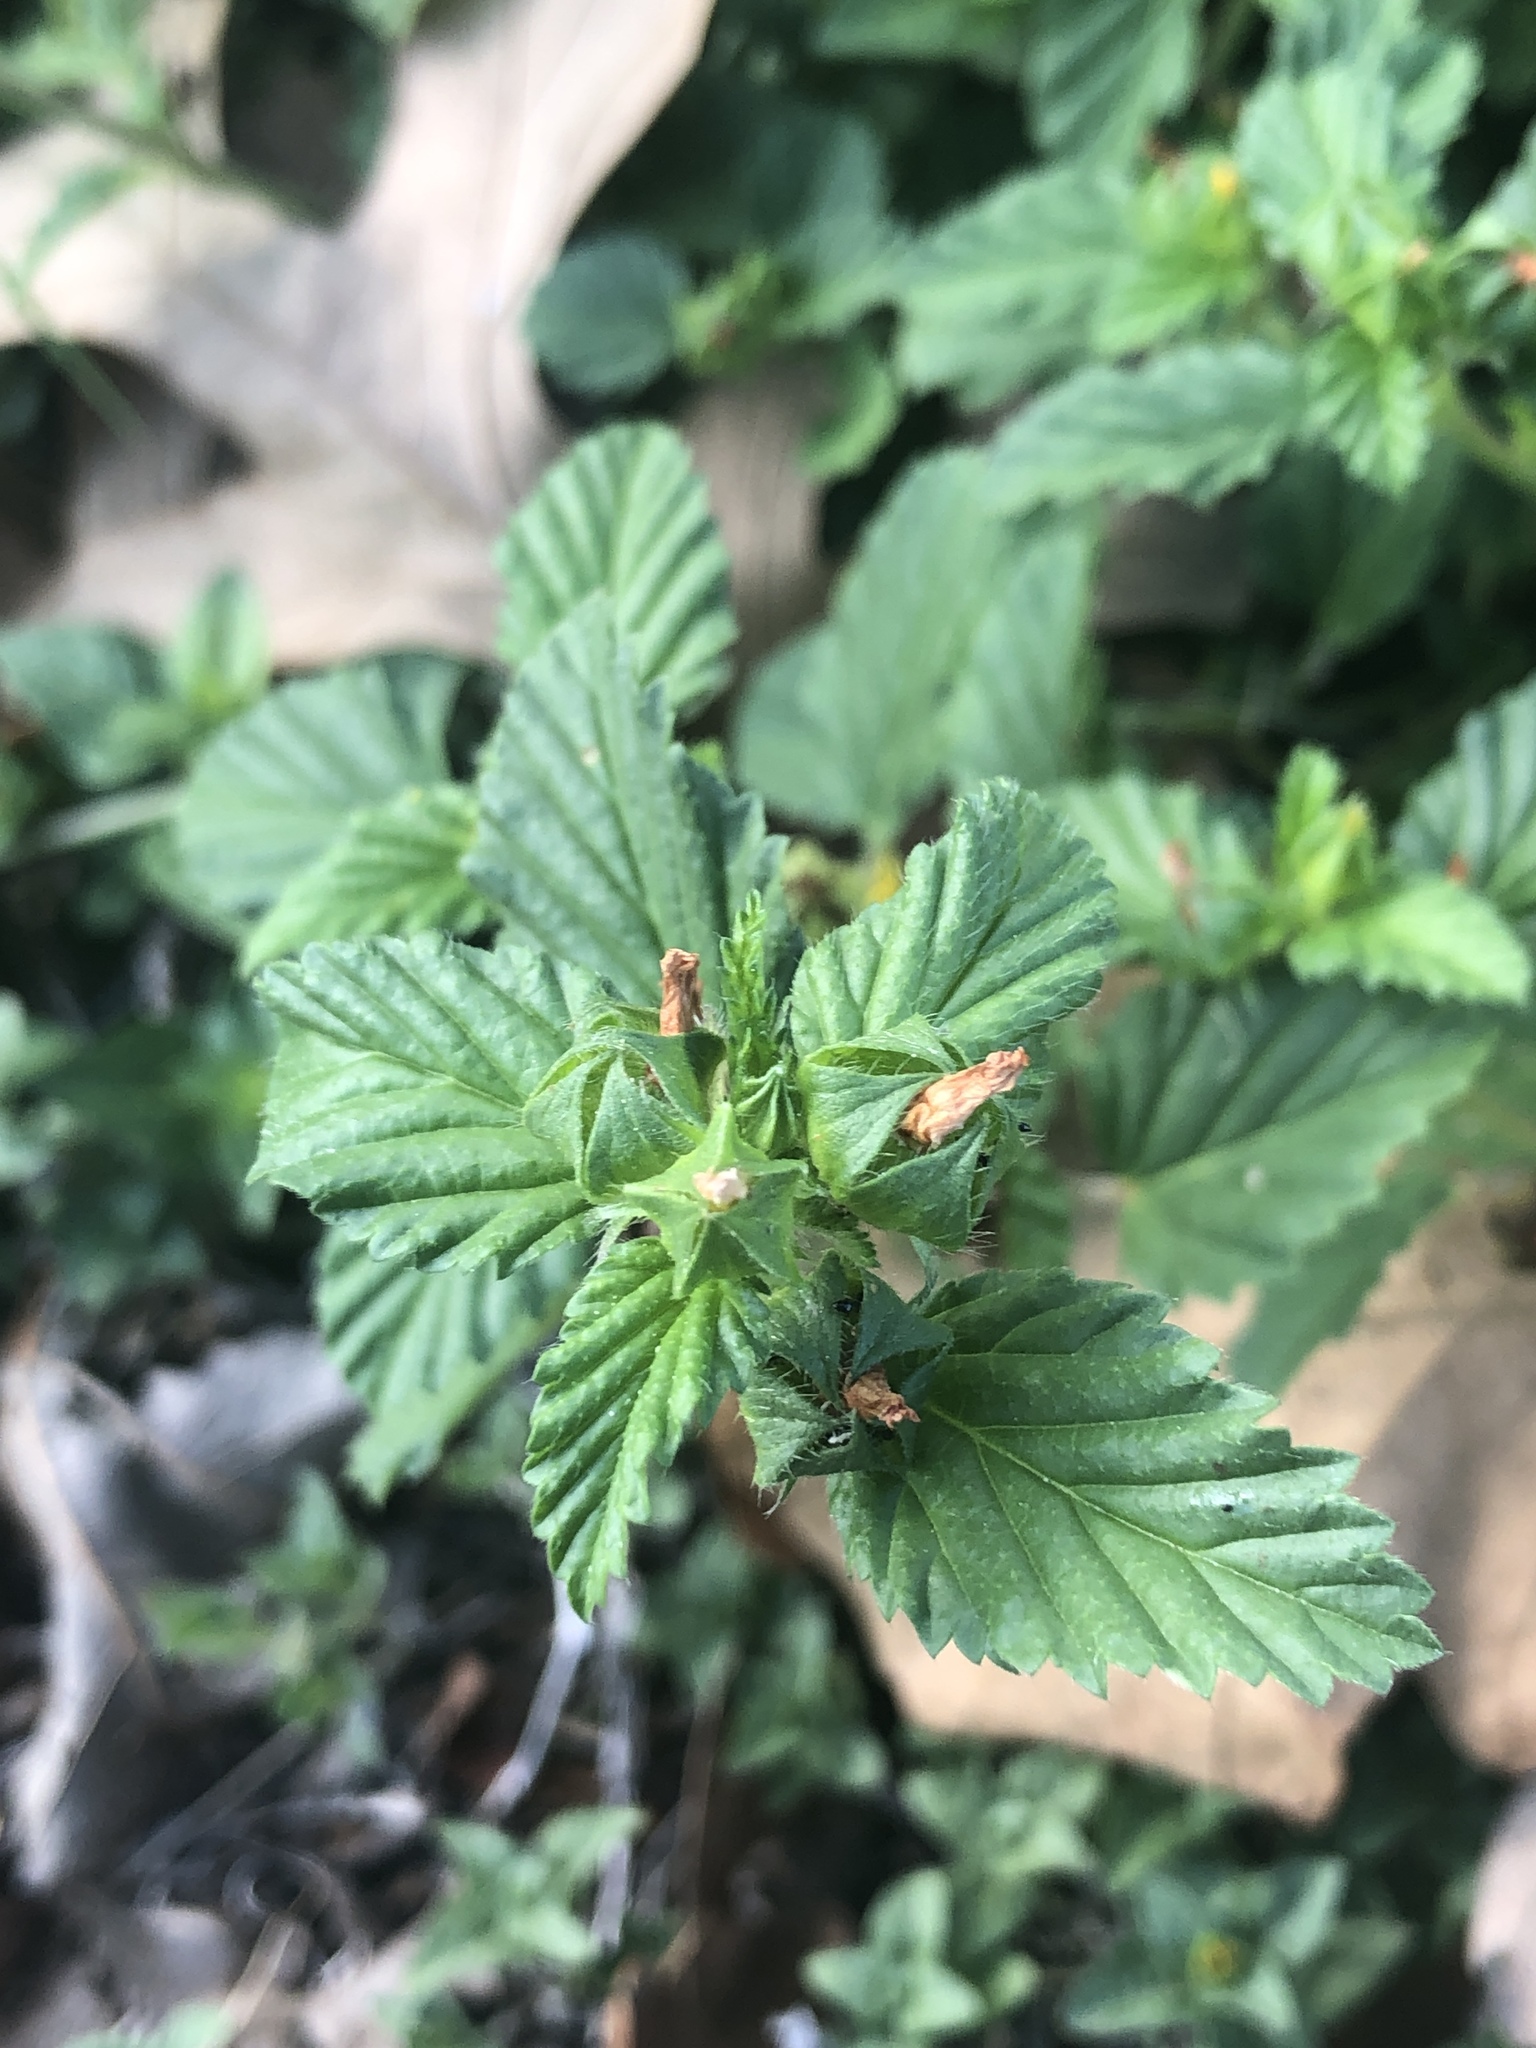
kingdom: Plantae
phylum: Tracheophyta
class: Magnoliopsida
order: Malvales
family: Malvaceae
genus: Malvastrum
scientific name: Malvastrum coromandelianum
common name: Threelobe false mallow
